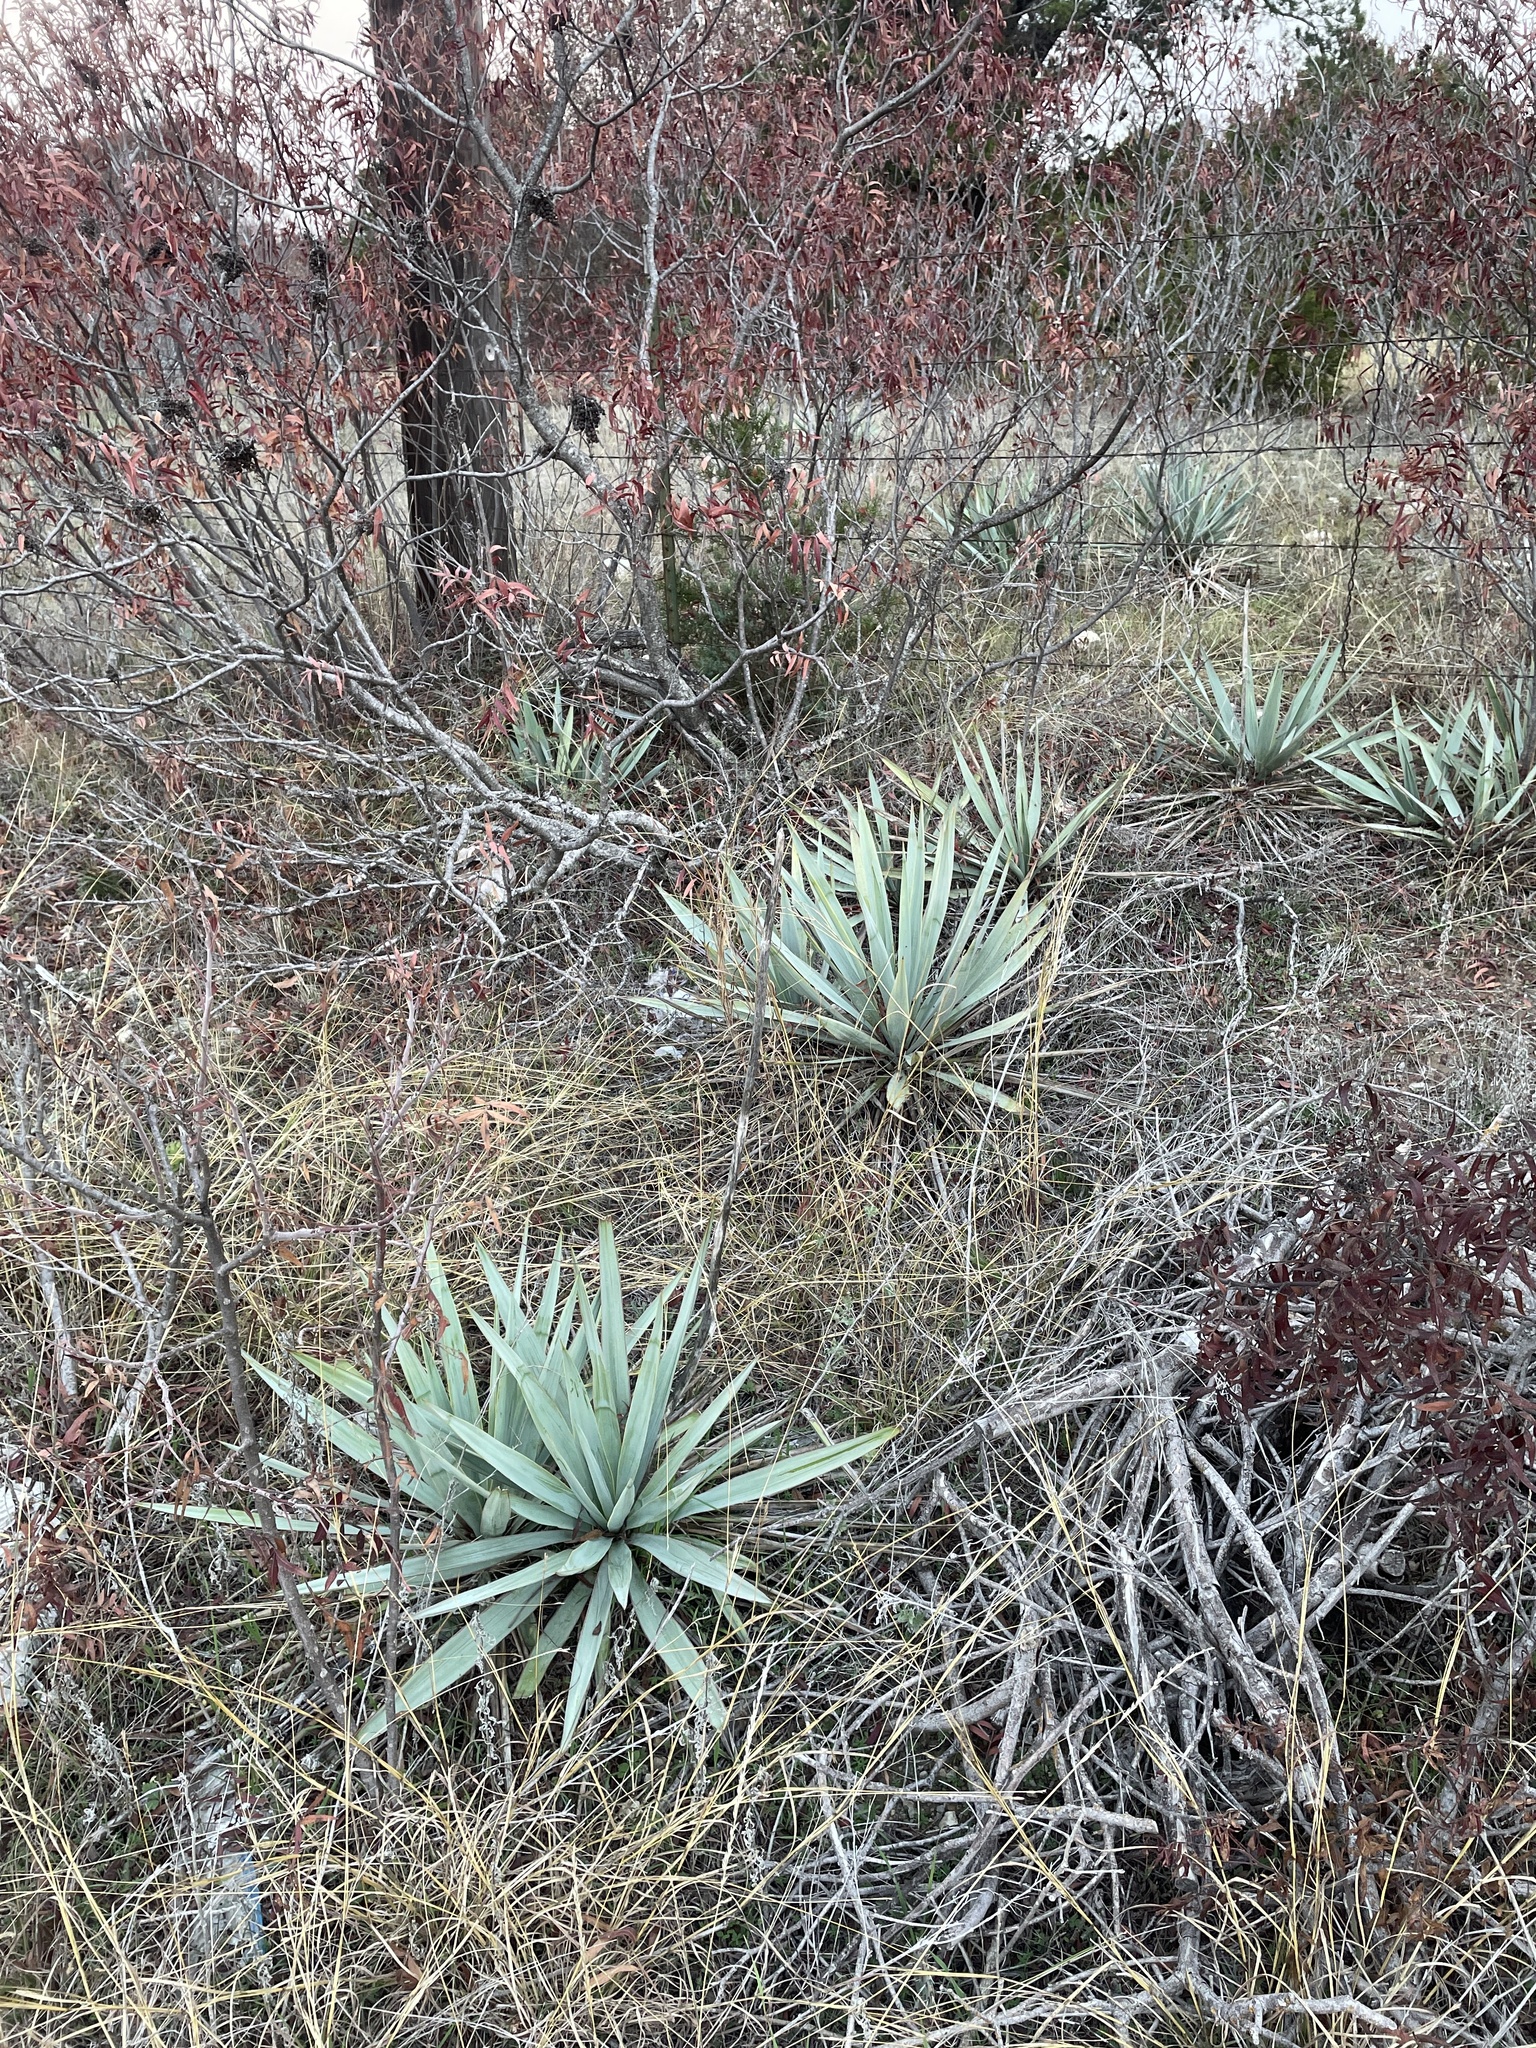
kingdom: Plantae
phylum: Tracheophyta
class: Liliopsida
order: Asparagales
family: Asparagaceae
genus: Yucca
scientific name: Yucca pallida
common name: Pale leaf yucca
